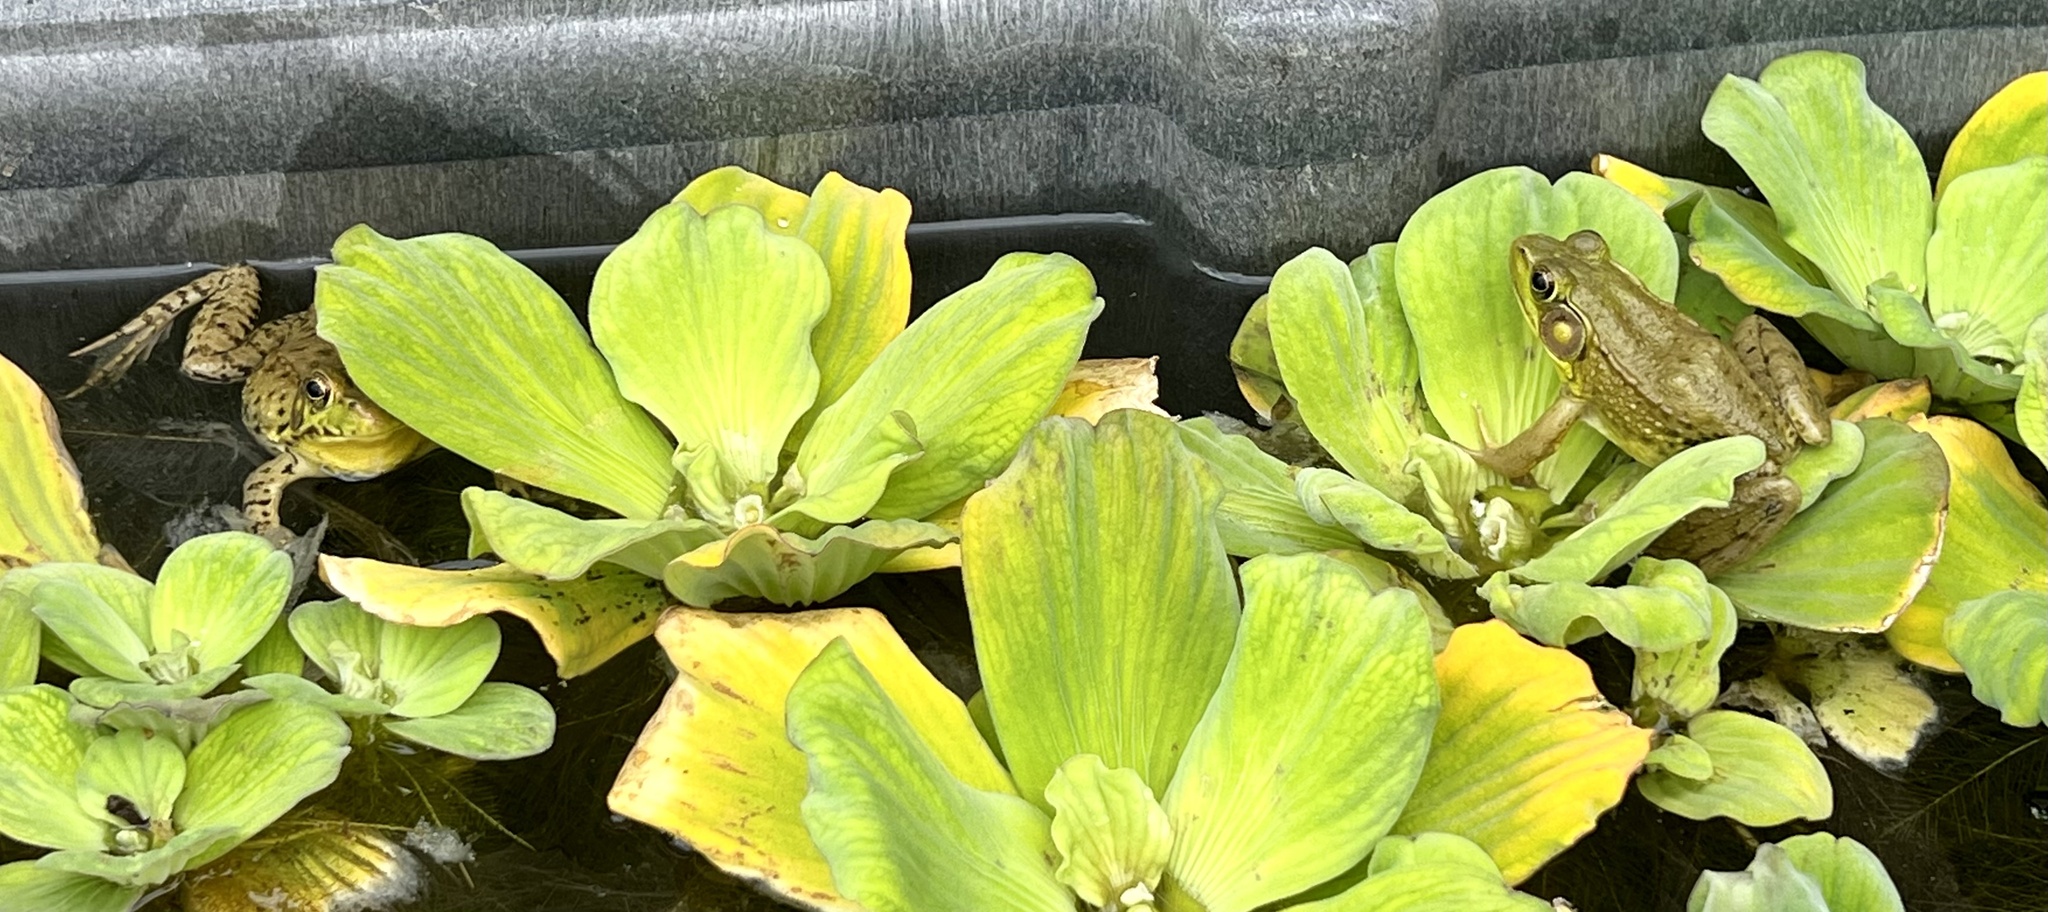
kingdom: Animalia
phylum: Chordata
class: Amphibia
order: Anura
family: Ranidae
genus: Lithobates
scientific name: Lithobates clamitans
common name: Green frog
